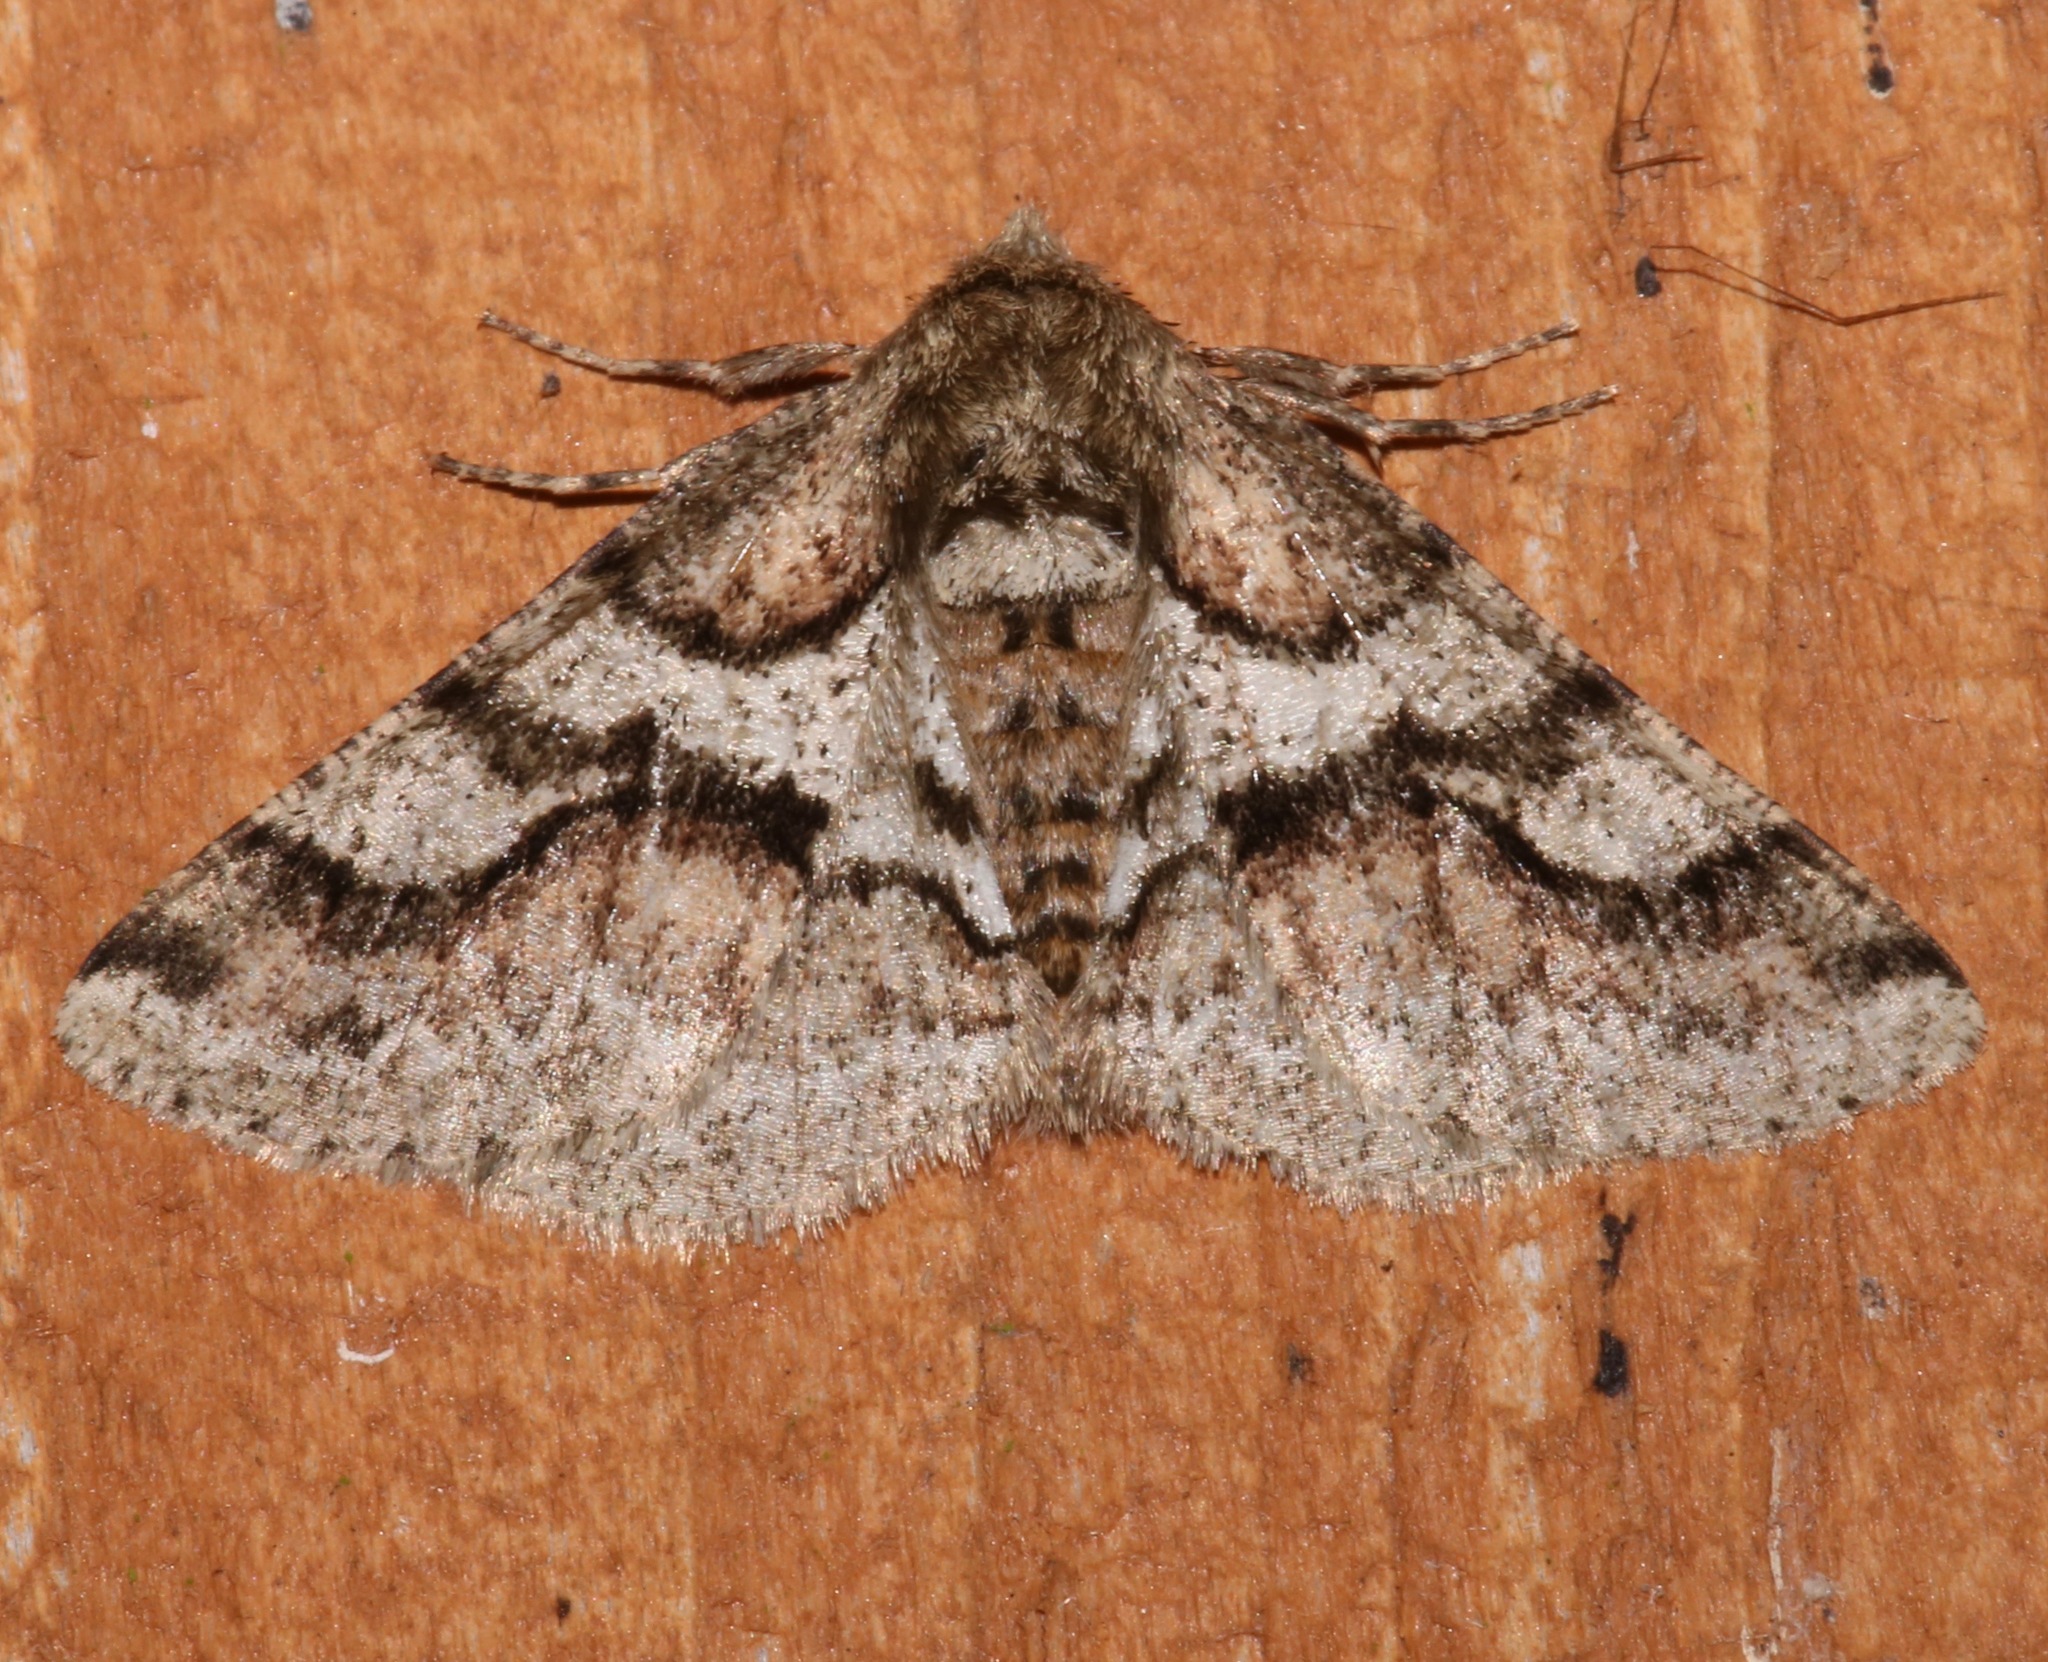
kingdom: Animalia
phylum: Arthropoda
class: Insecta
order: Lepidoptera
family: Geometridae
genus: Lycia
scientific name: Lycia ypsilon
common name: Wooly gray
